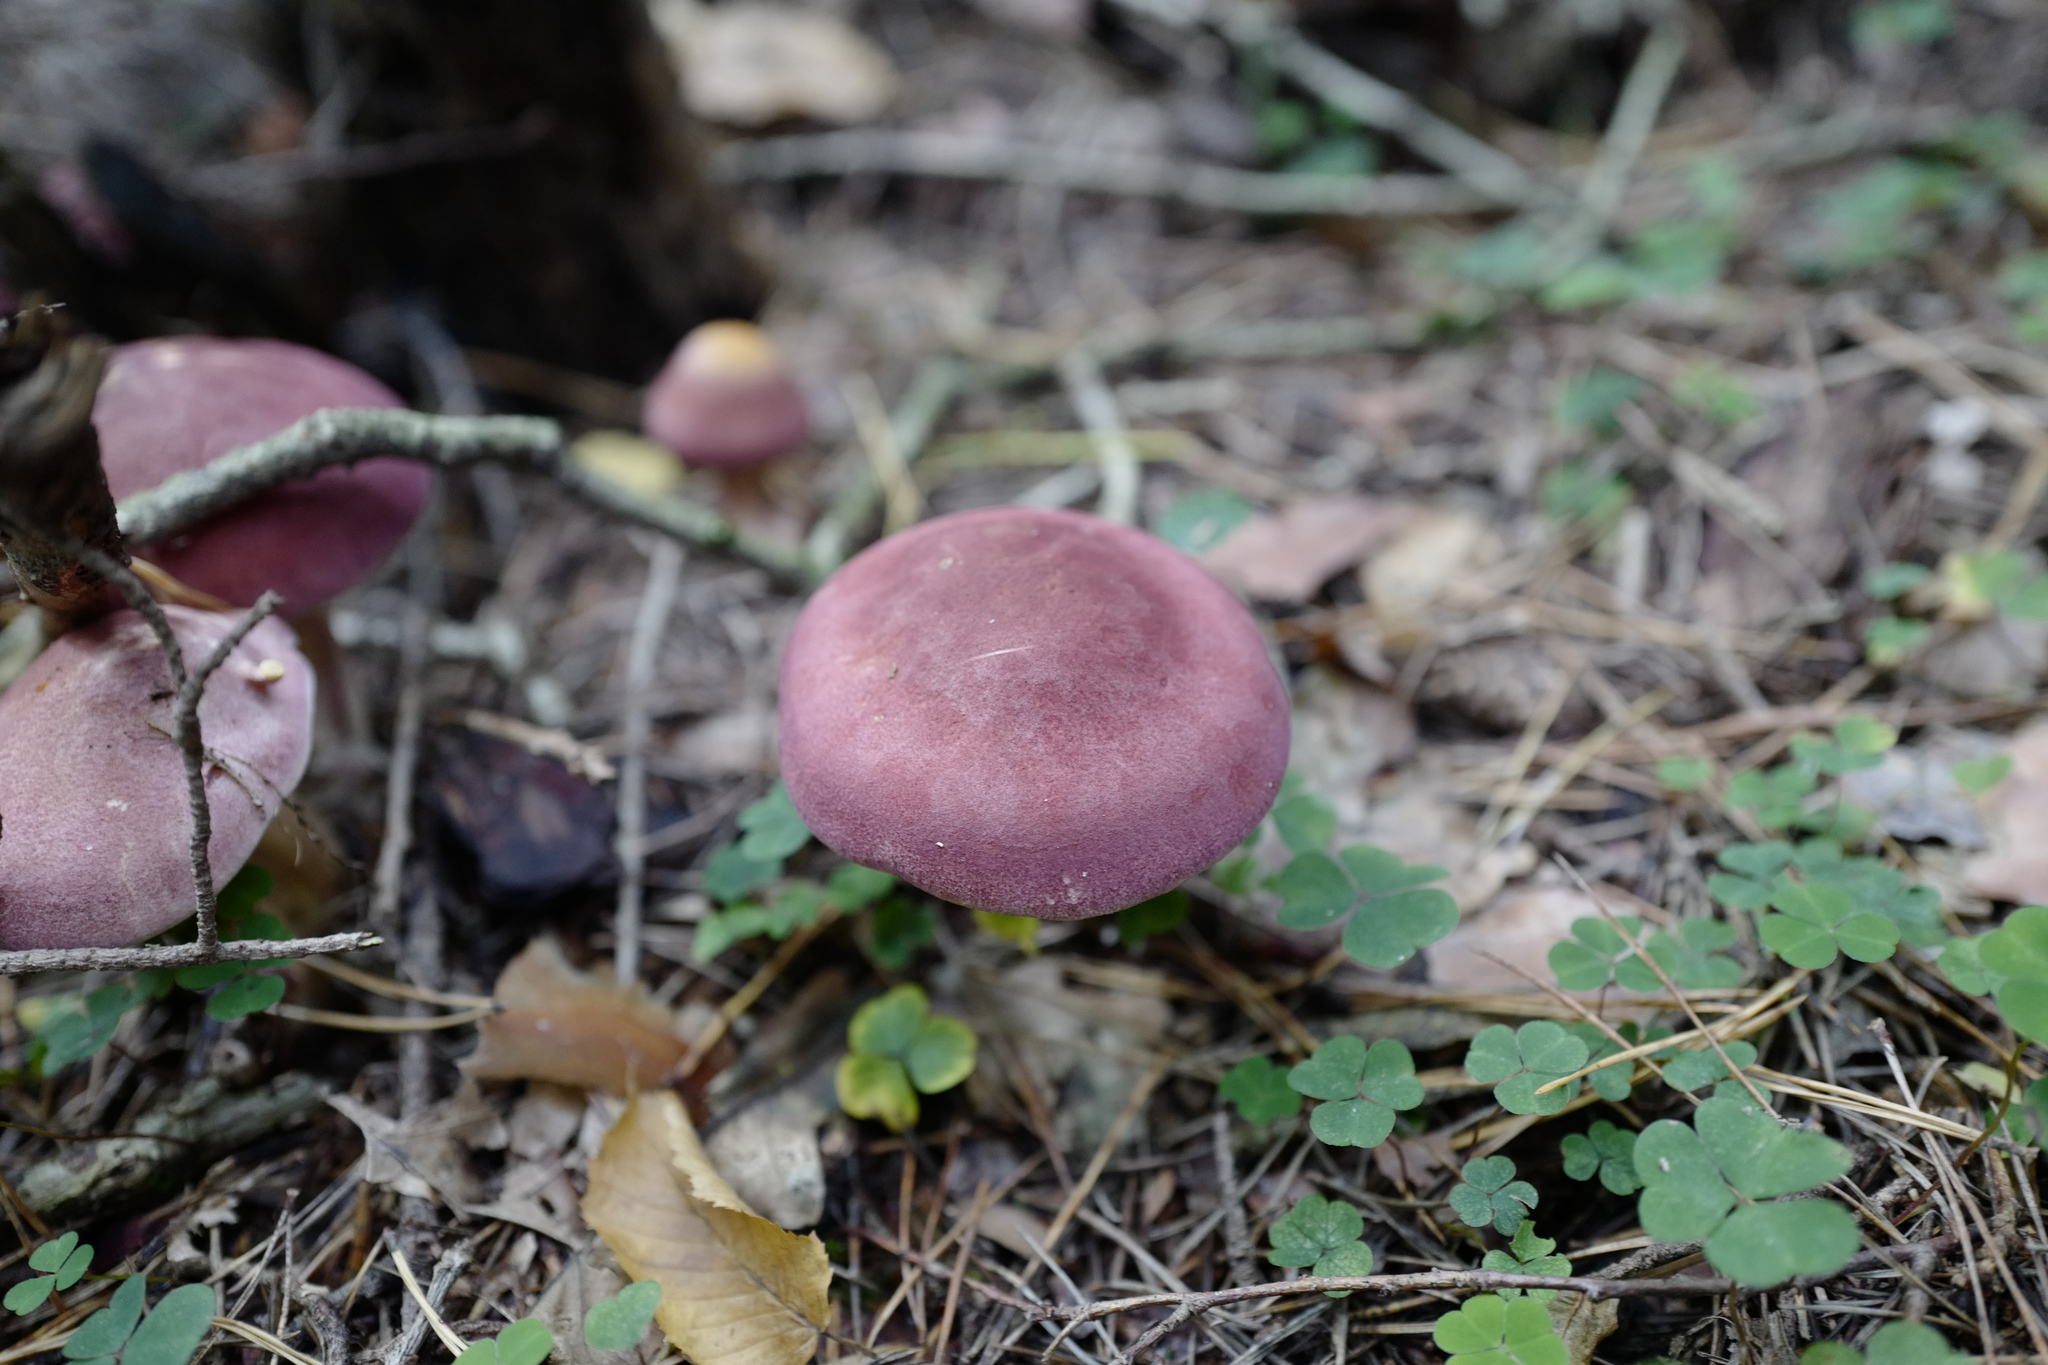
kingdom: Fungi
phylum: Basidiomycota
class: Agaricomycetes
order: Agaricales
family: Tricholomataceae
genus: Tricholomopsis
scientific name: Tricholomopsis rutilans
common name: Plums and custard
